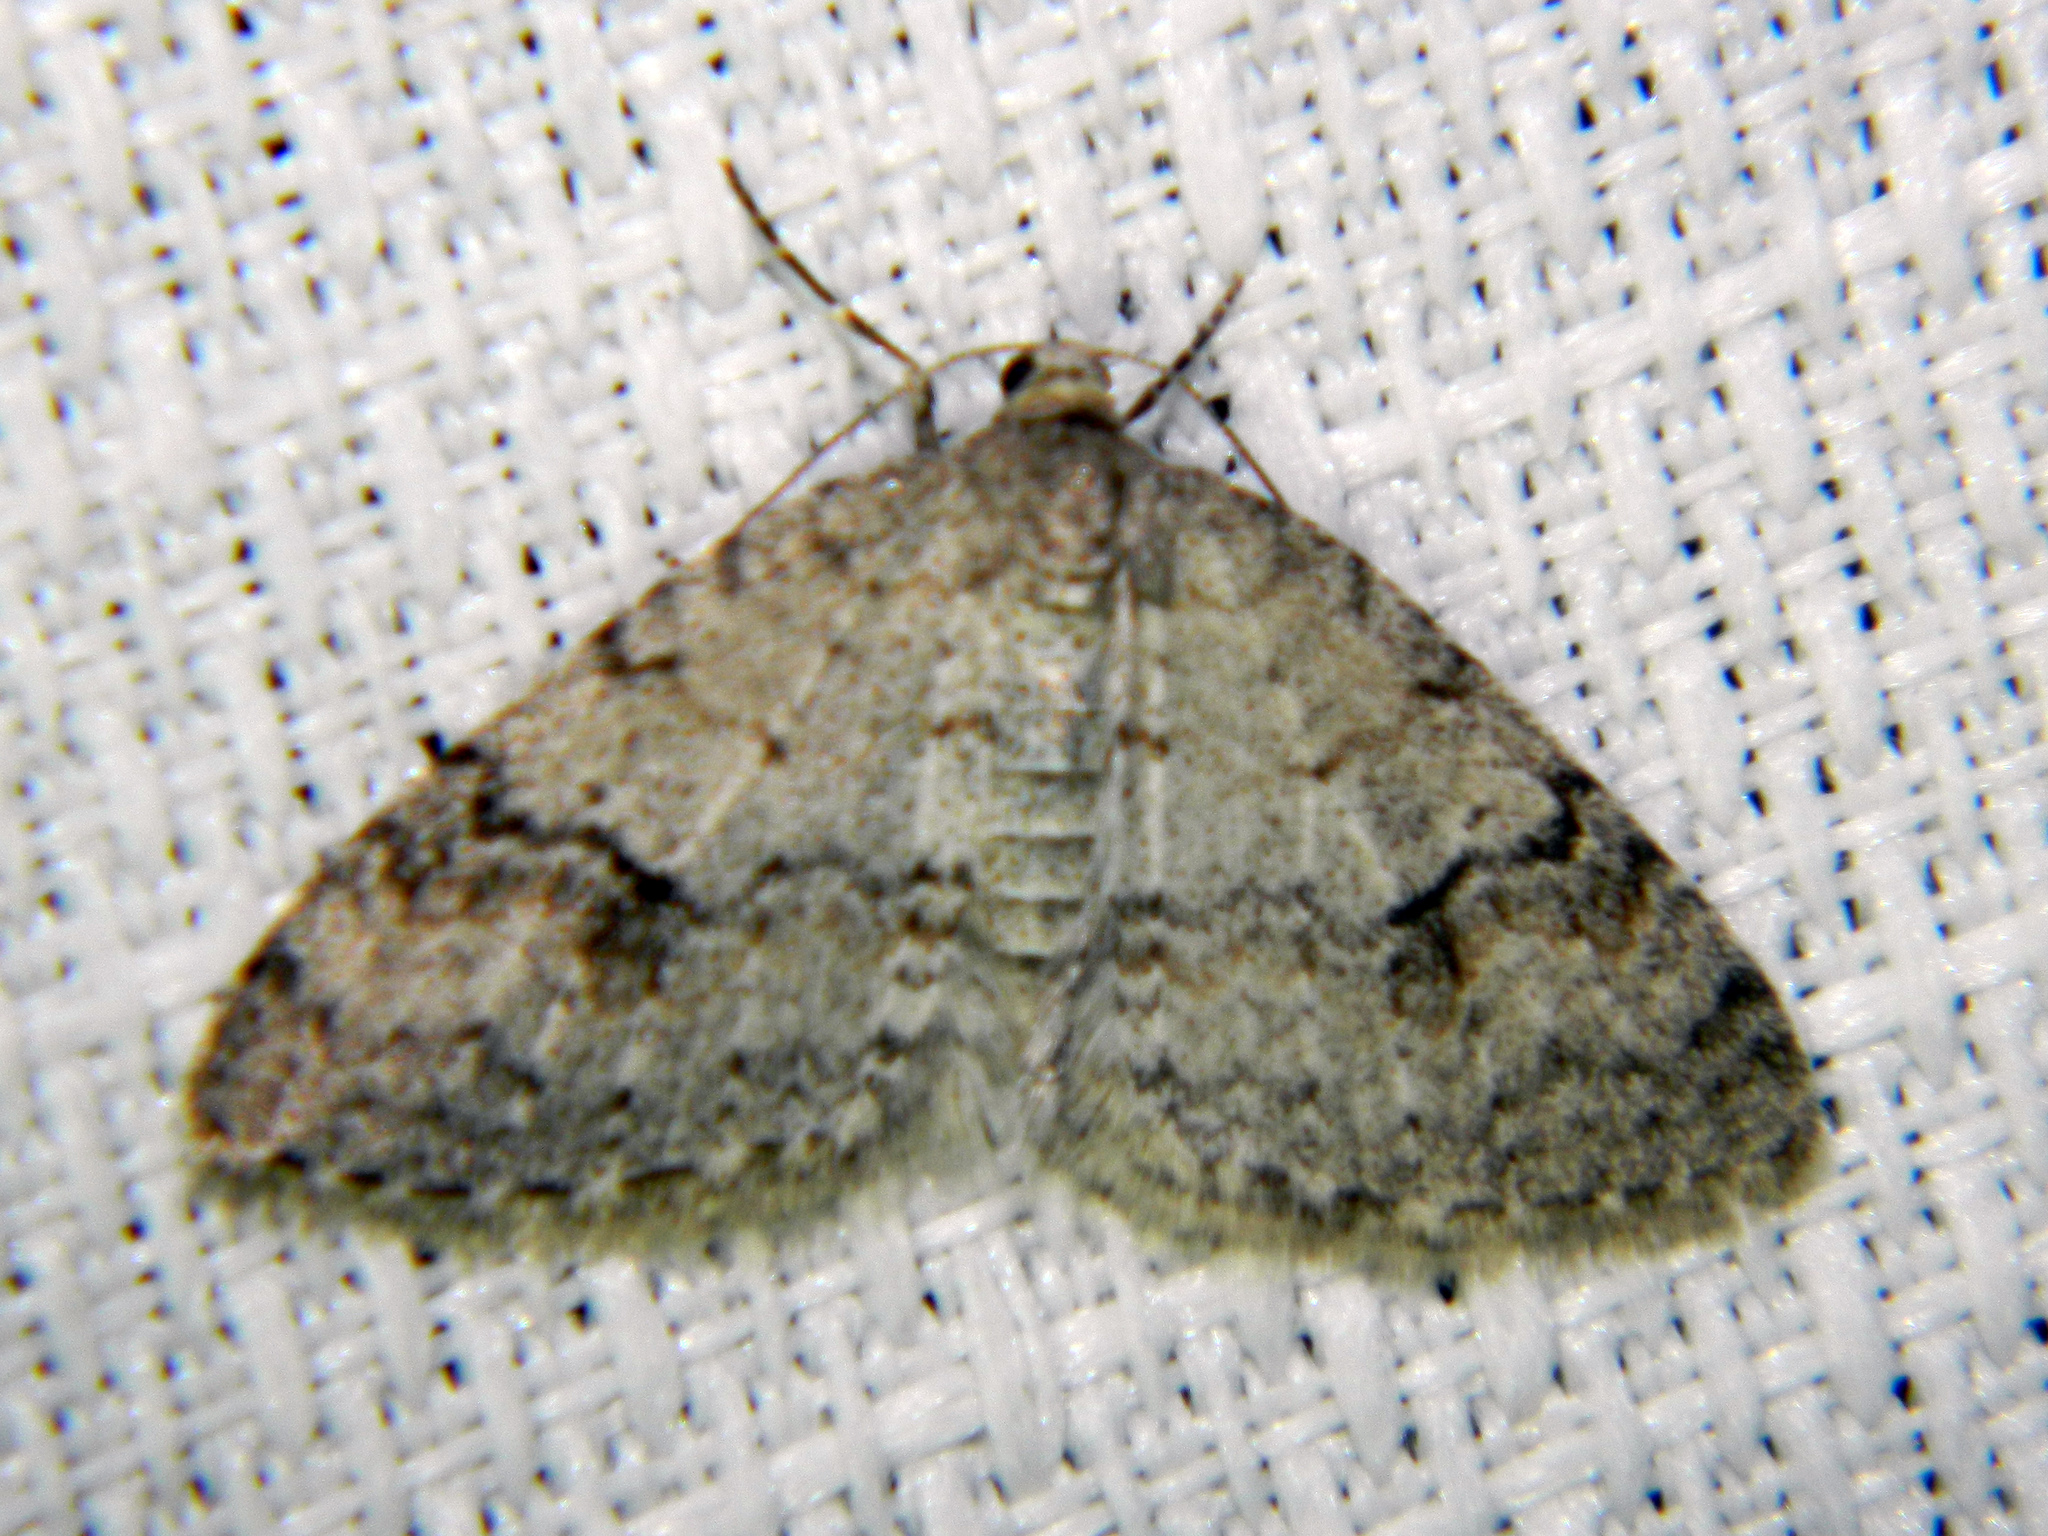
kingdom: Animalia
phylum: Arthropoda
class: Insecta
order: Lepidoptera
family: Geometridae
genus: Venusia
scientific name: Venusia comptaria
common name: Brown-shaded carpet
